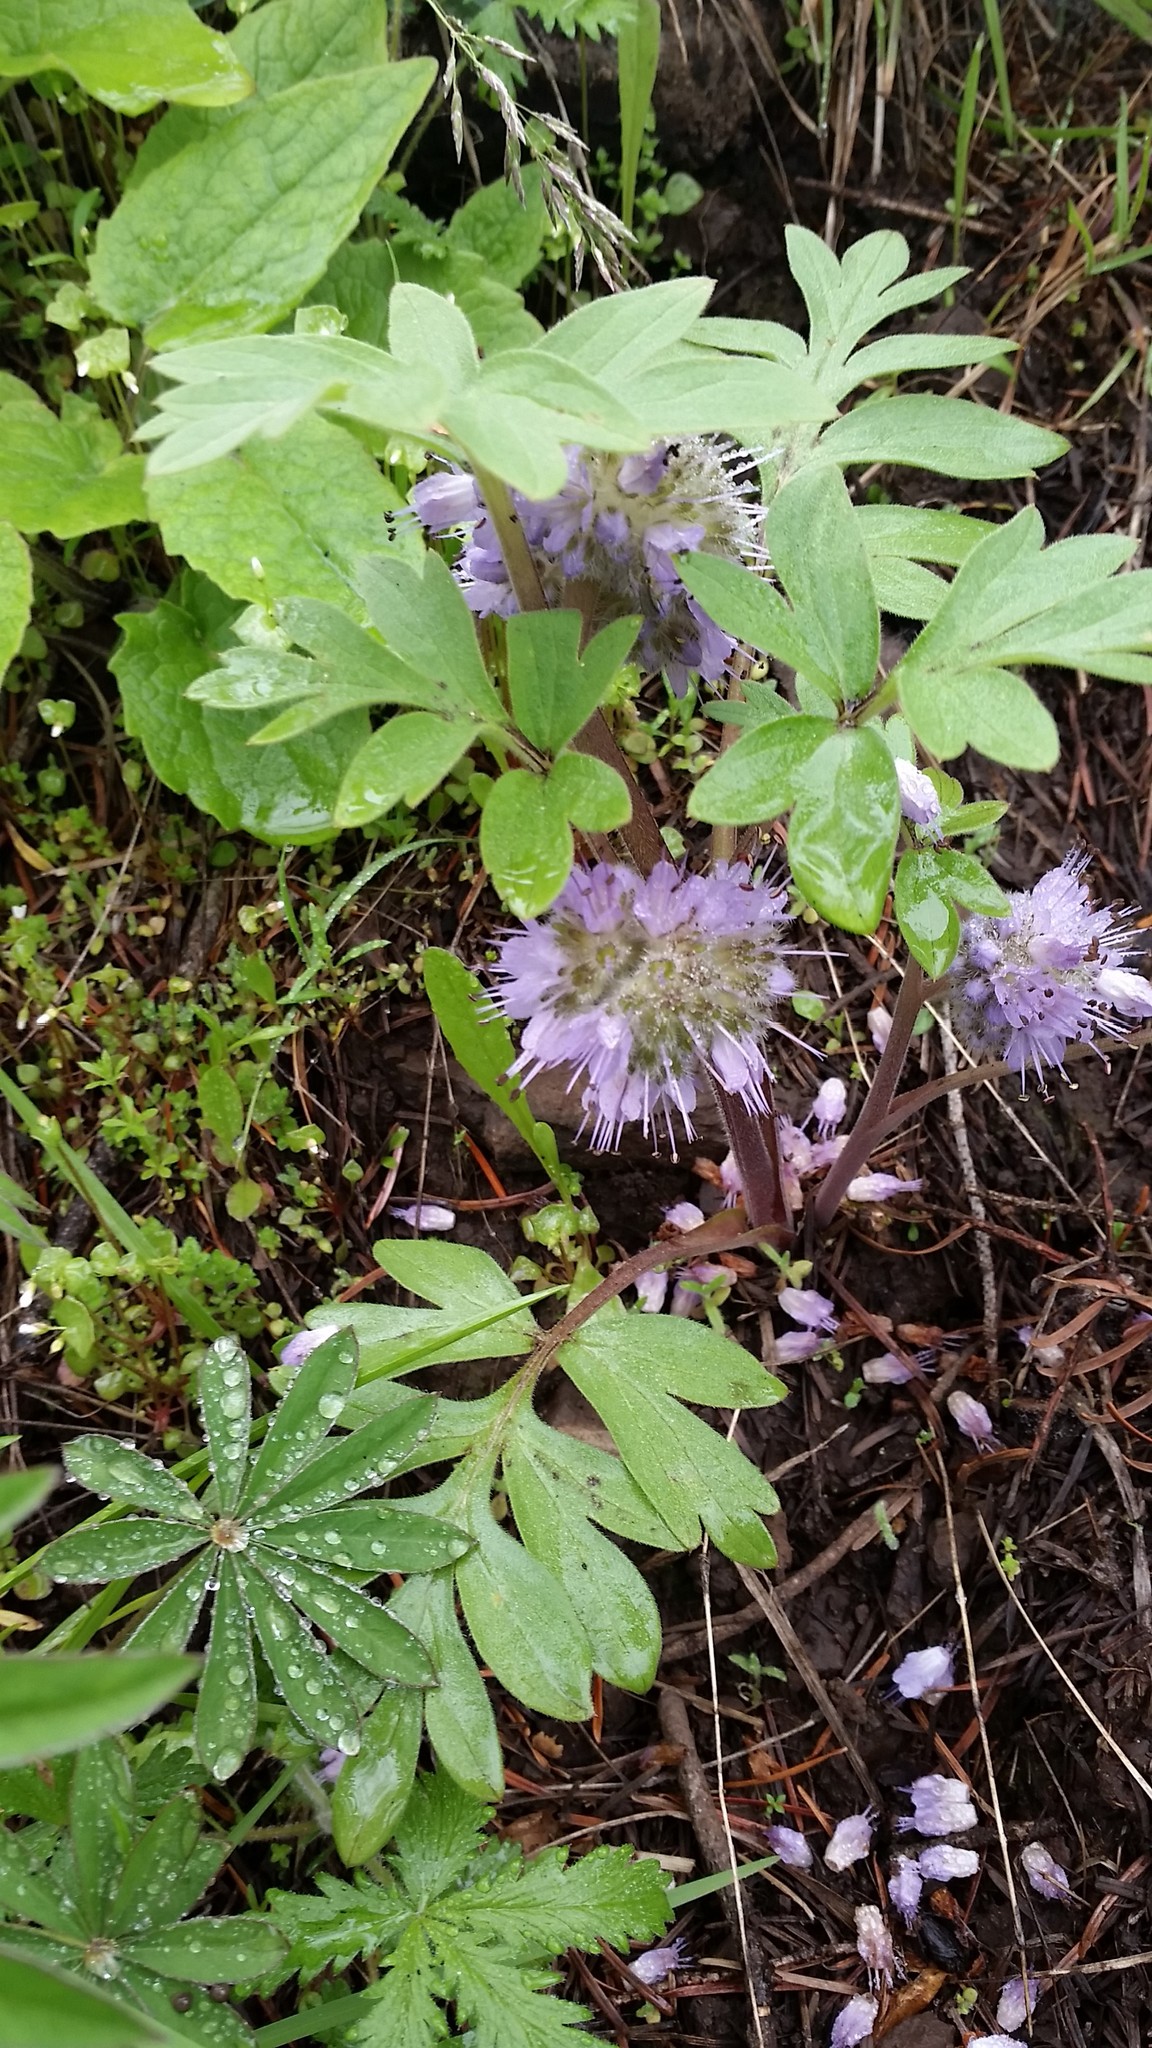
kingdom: Plantae
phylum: Tracheophyta
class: Magnoliopsida
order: Boraginales
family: Hydrophyllaceae
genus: Hydrophyllum
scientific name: Hydrophyllum capitatum
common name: Woollen-breeches
